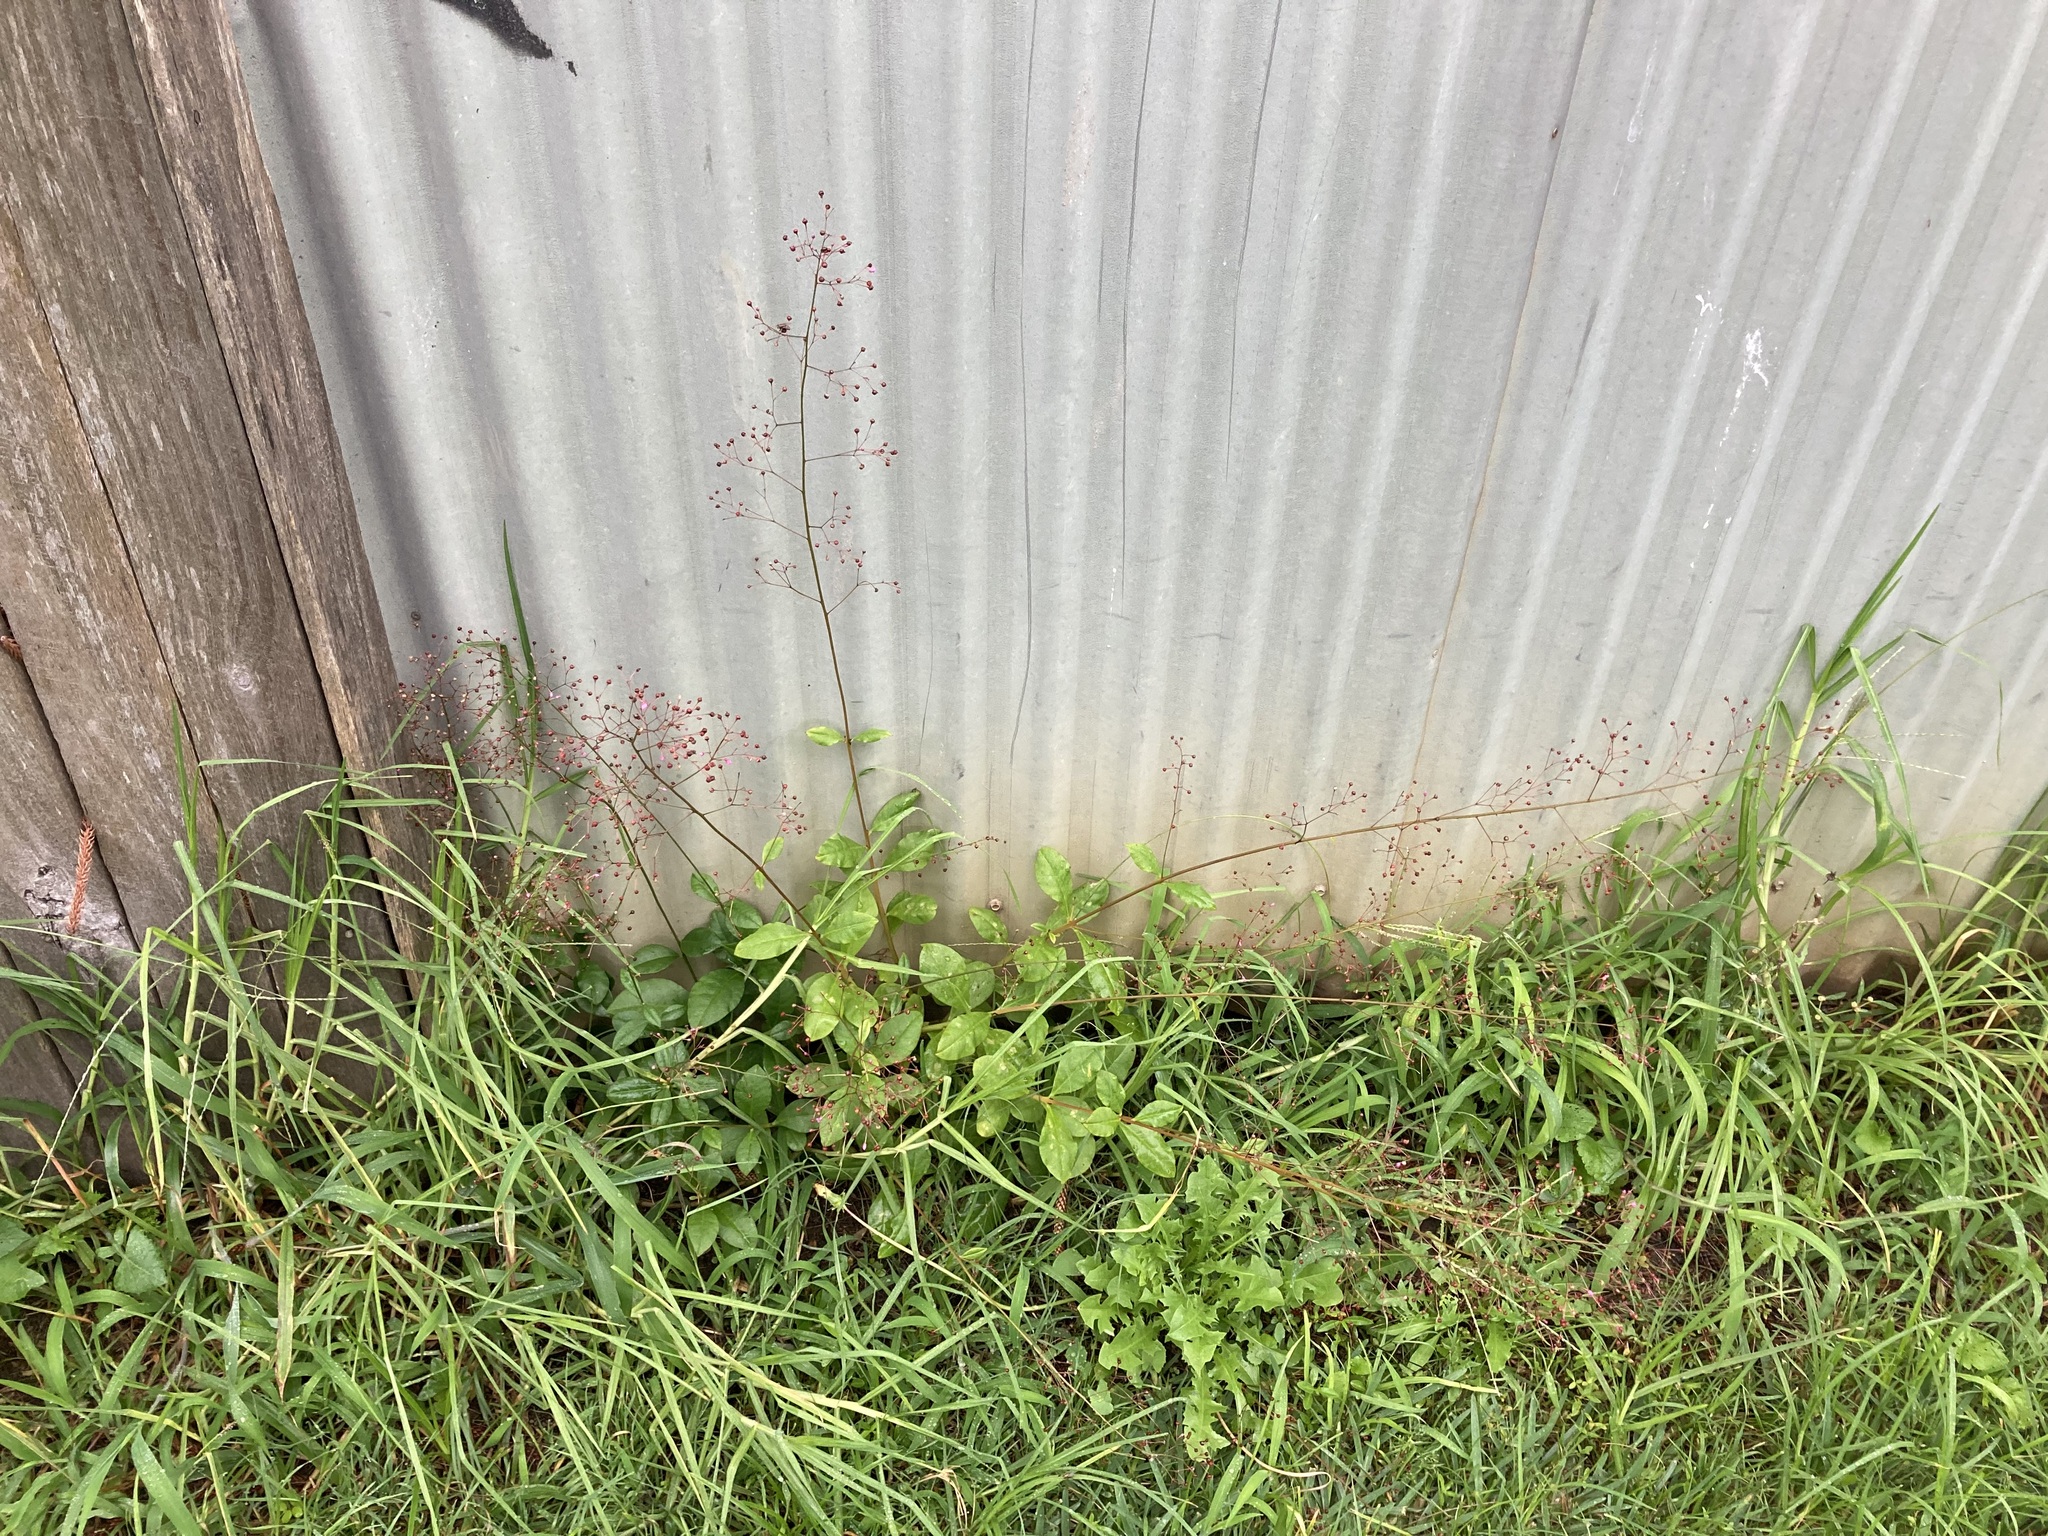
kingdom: Plantae
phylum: Tracheophyta
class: Magnoliopsida
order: Caryophyllales
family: Talinaceae
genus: Talinum
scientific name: Talinum paniculatum
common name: Jewels of opar
